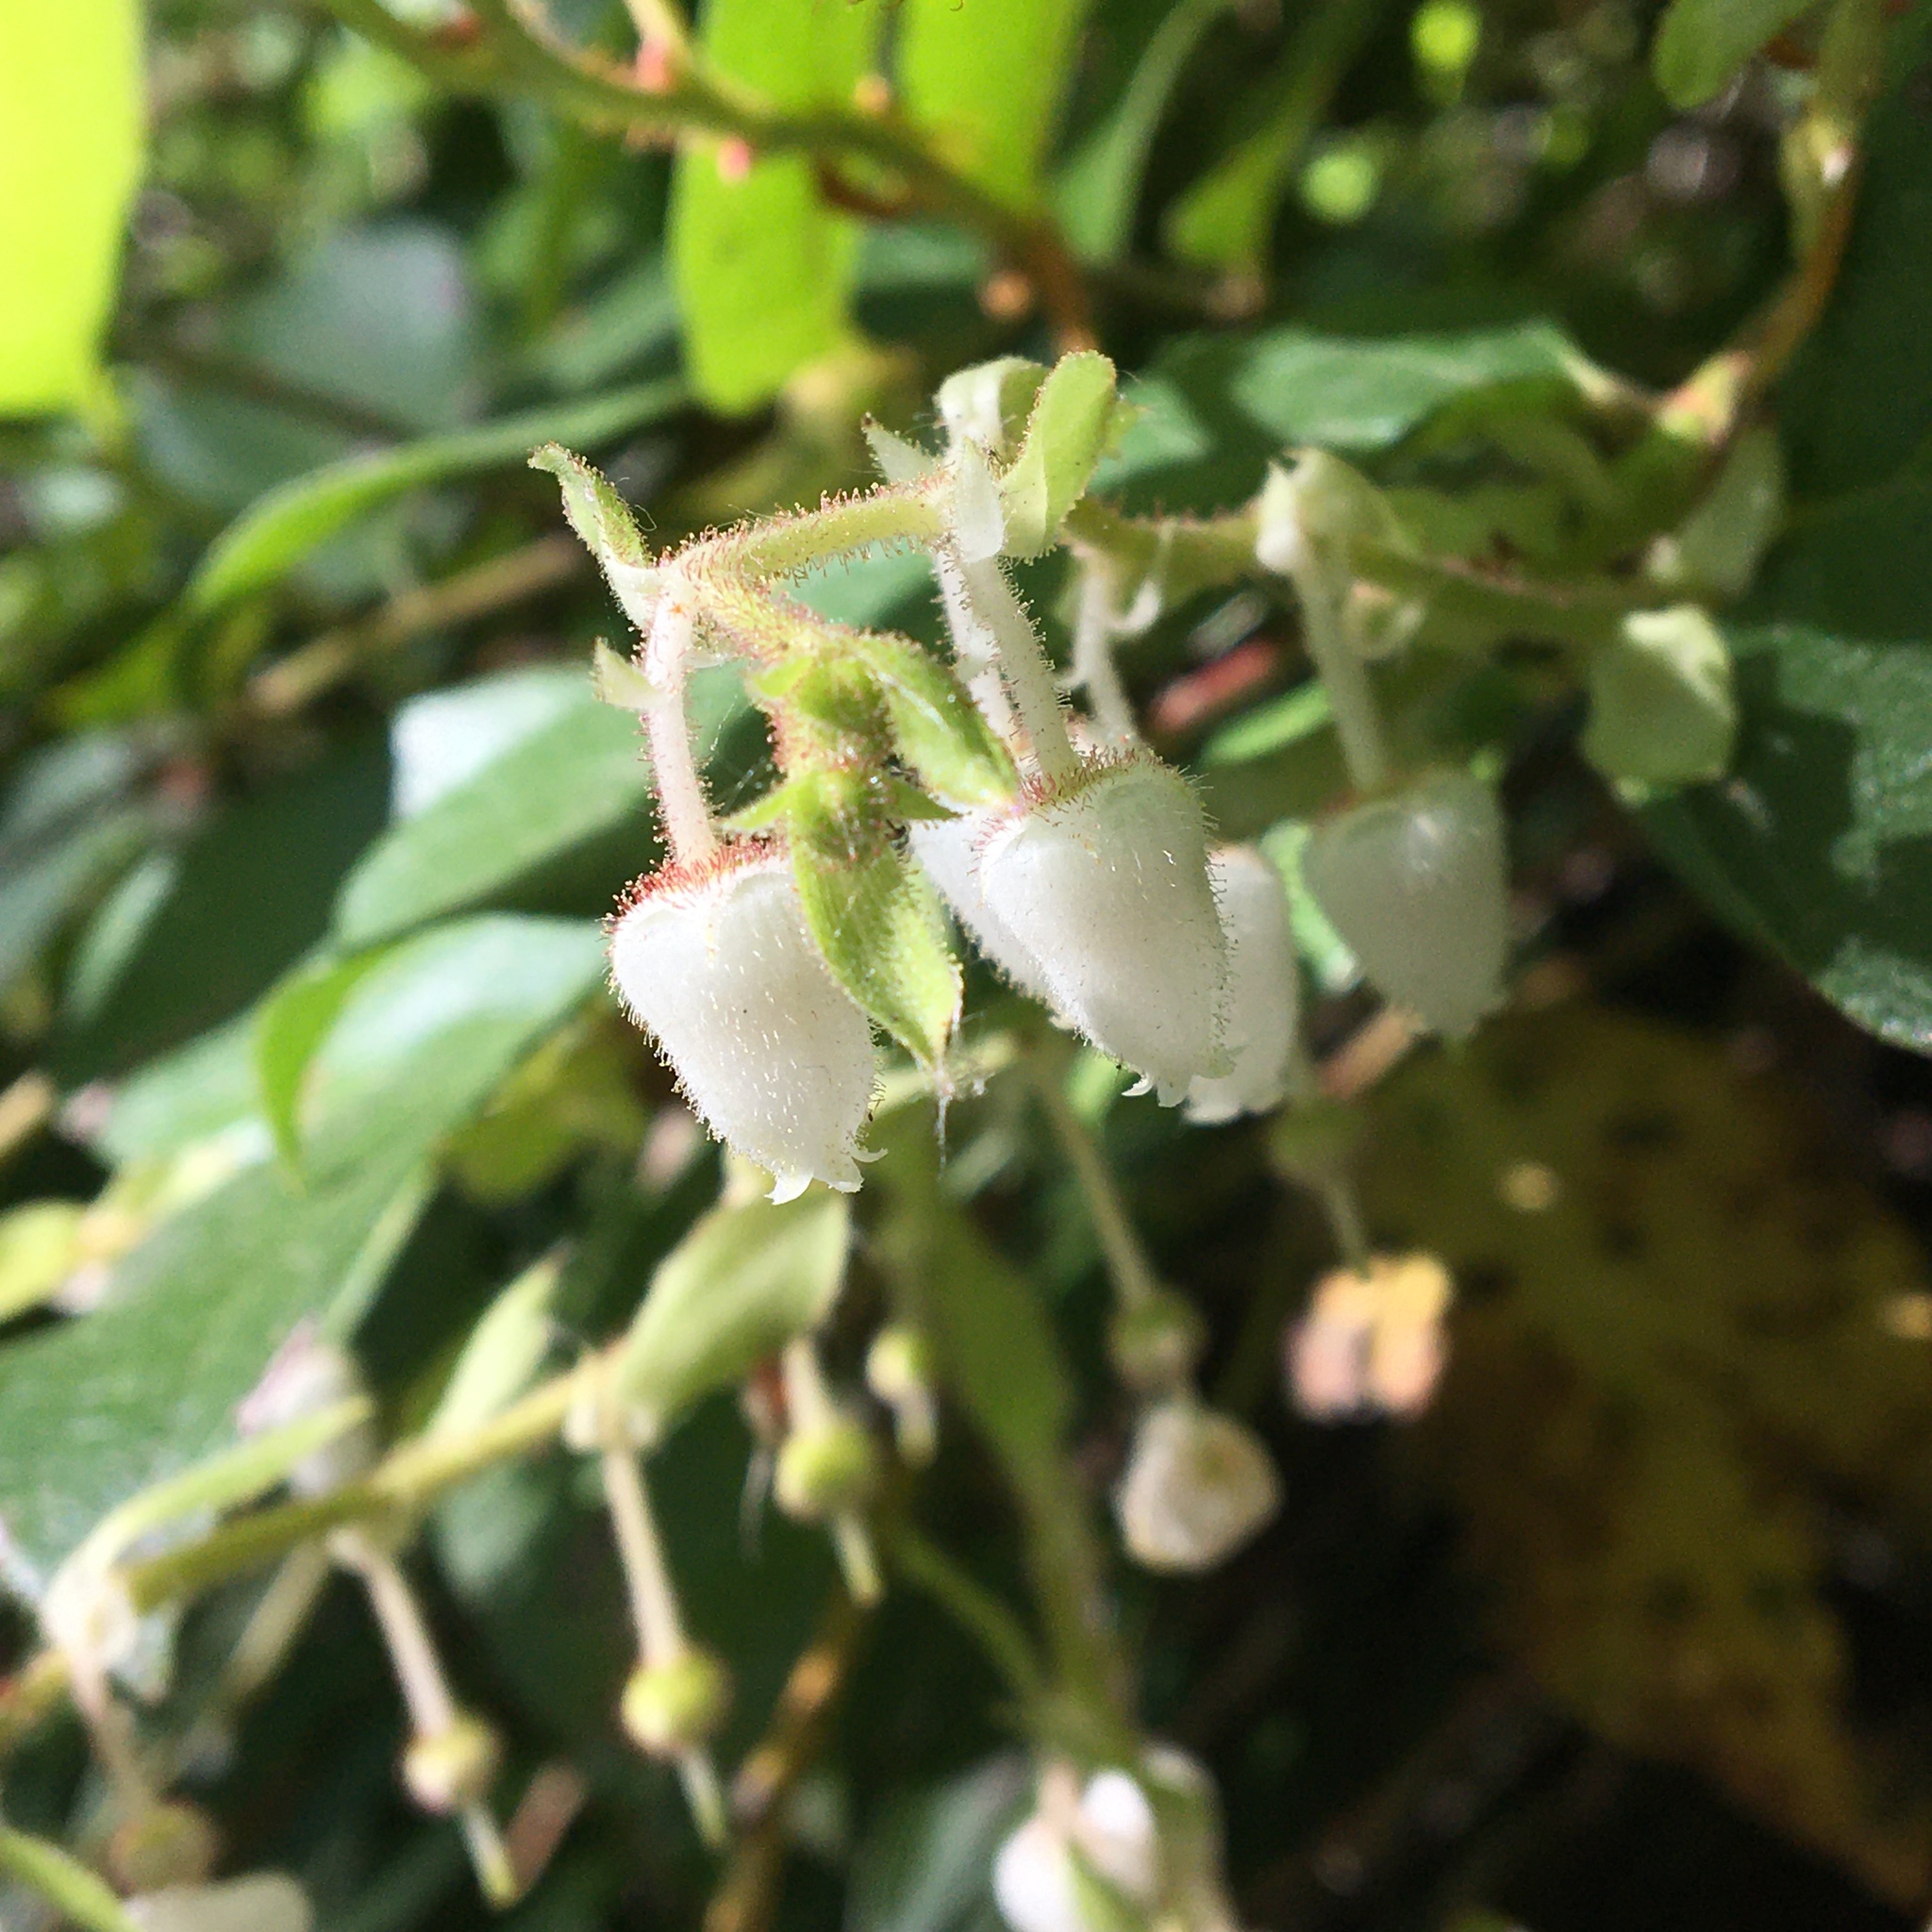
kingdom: Plantae
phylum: Tracheophyta
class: Magnoliopsida
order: Ericales
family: Ericaceae
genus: Gaultheria
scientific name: Gaultheria shallon
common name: Shallon
